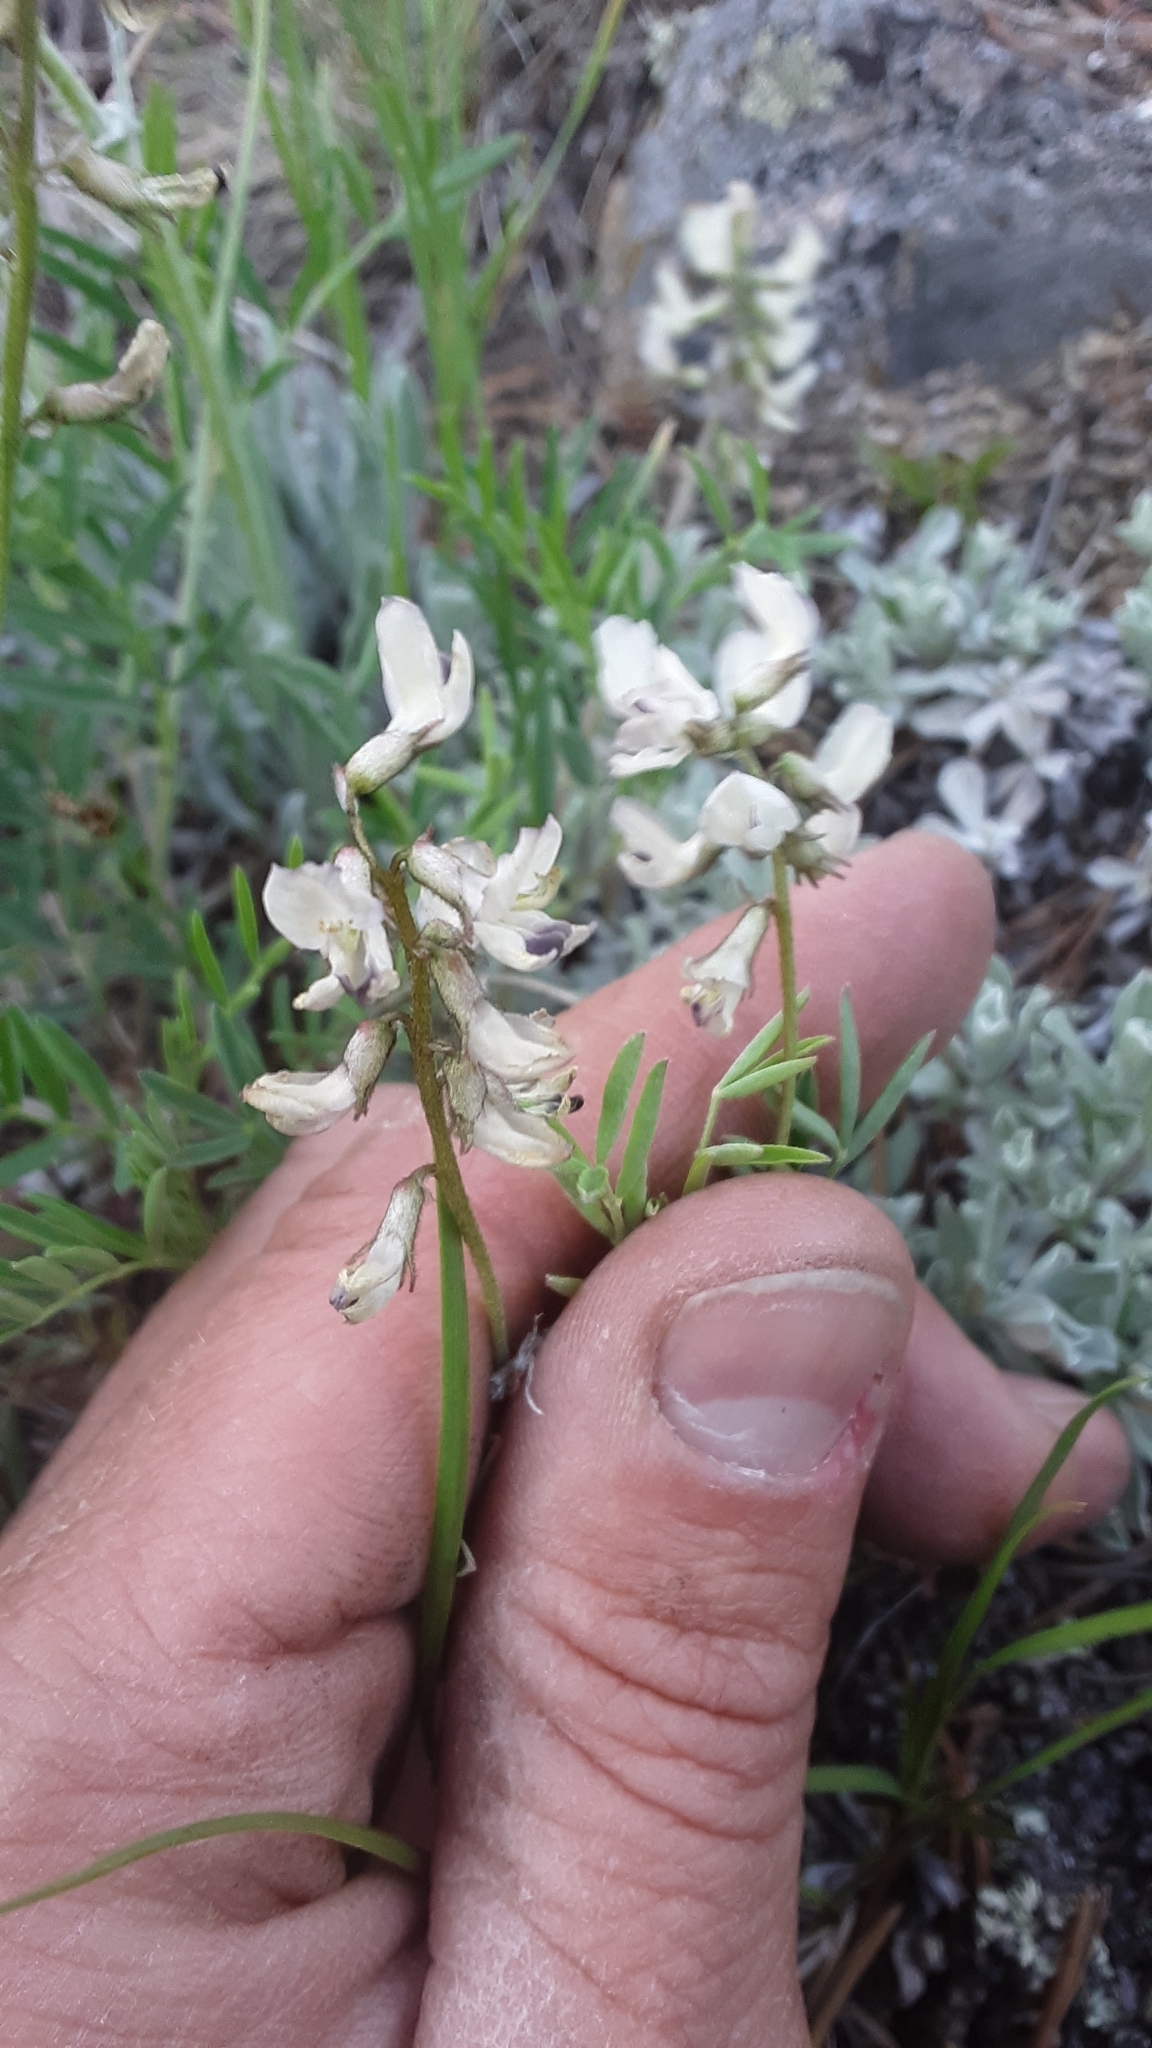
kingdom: Plantae
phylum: Tracheophyta
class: Magnoliopsida
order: Fabales
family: Fabaceae
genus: Astragalus
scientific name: Astragalus australis
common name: Indian milk-vetch
